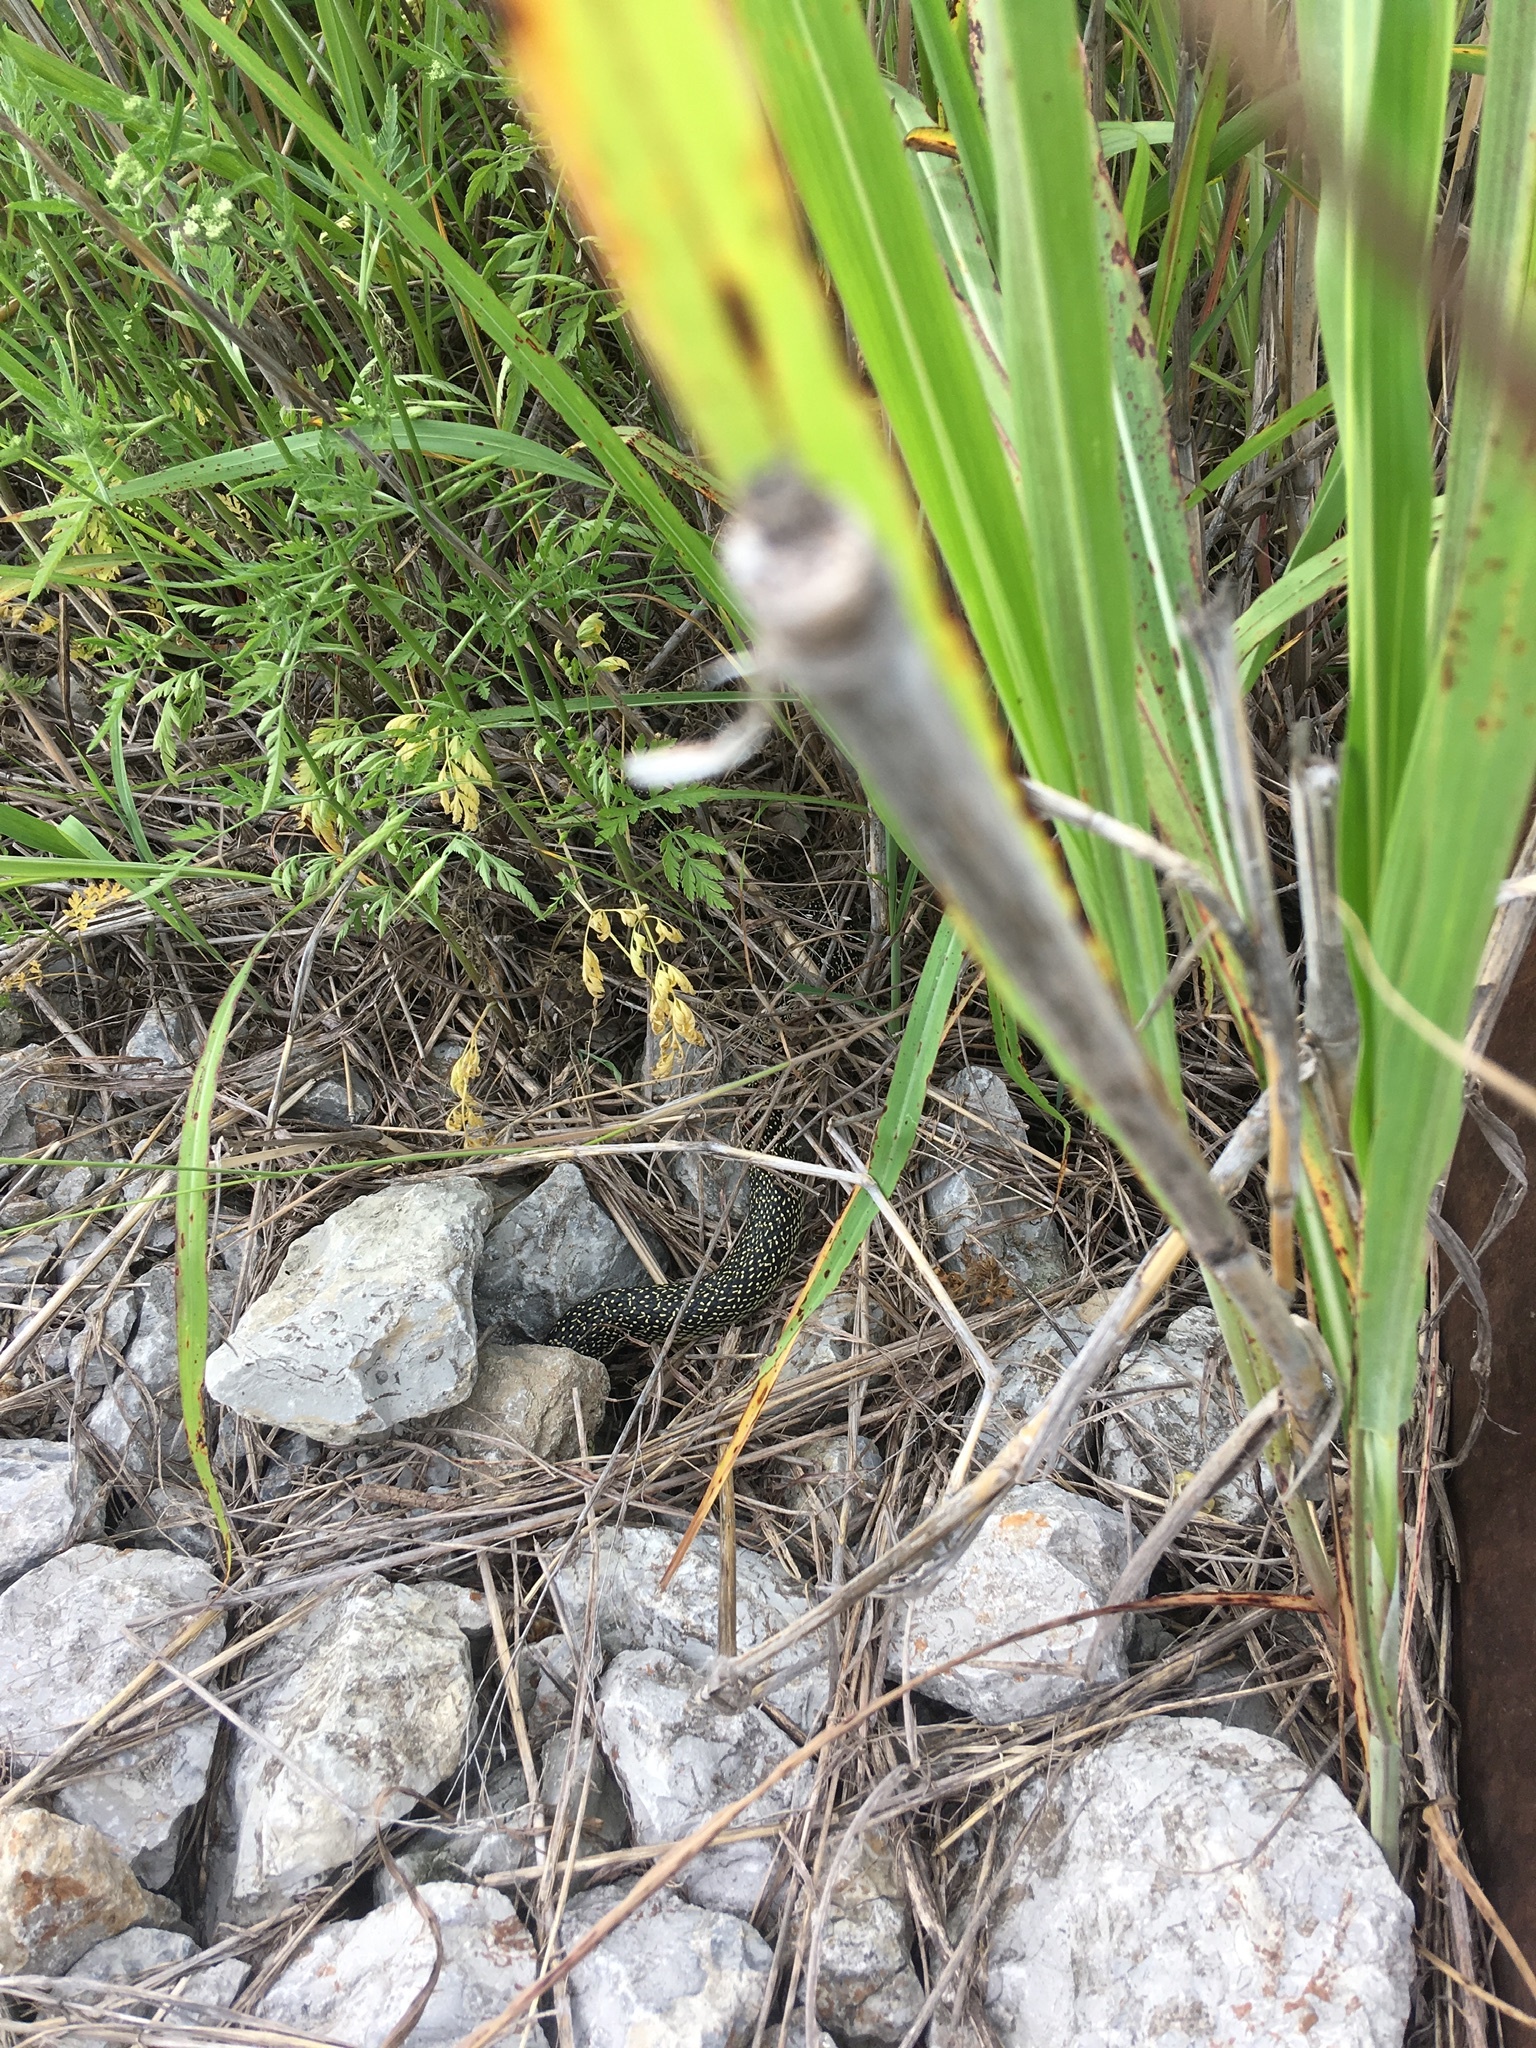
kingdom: Animalia
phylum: Chordata
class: Squamata
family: Colubridae
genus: Lampropeltis
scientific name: Lampropeltis holbrooki
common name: Speckled kingsnake
